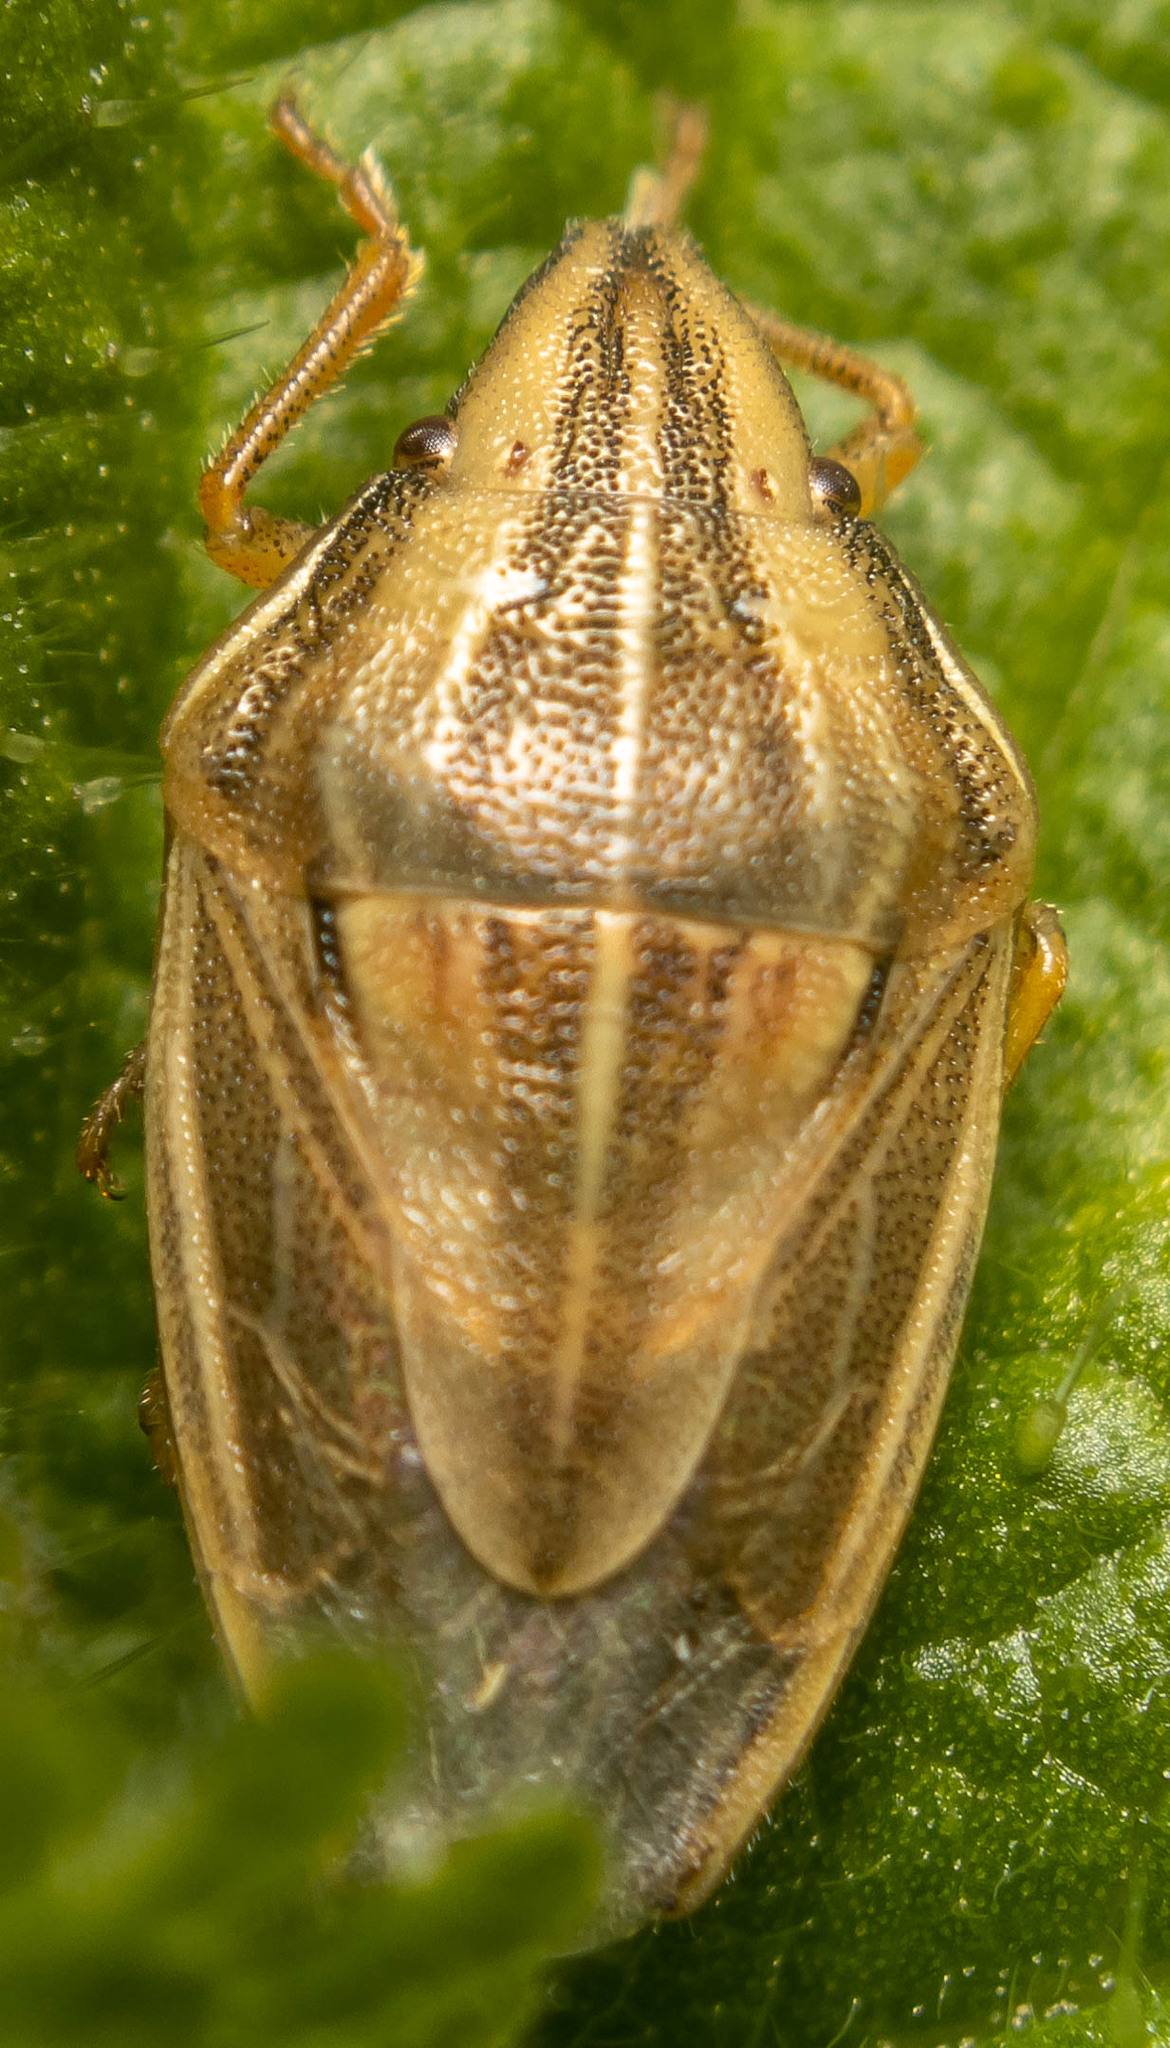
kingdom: Animalia
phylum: Arthropoda
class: Insecta
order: Hemiptera
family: Pentatomidae
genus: Aelia
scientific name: Aelia acuminata
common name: Bishop's mitre
